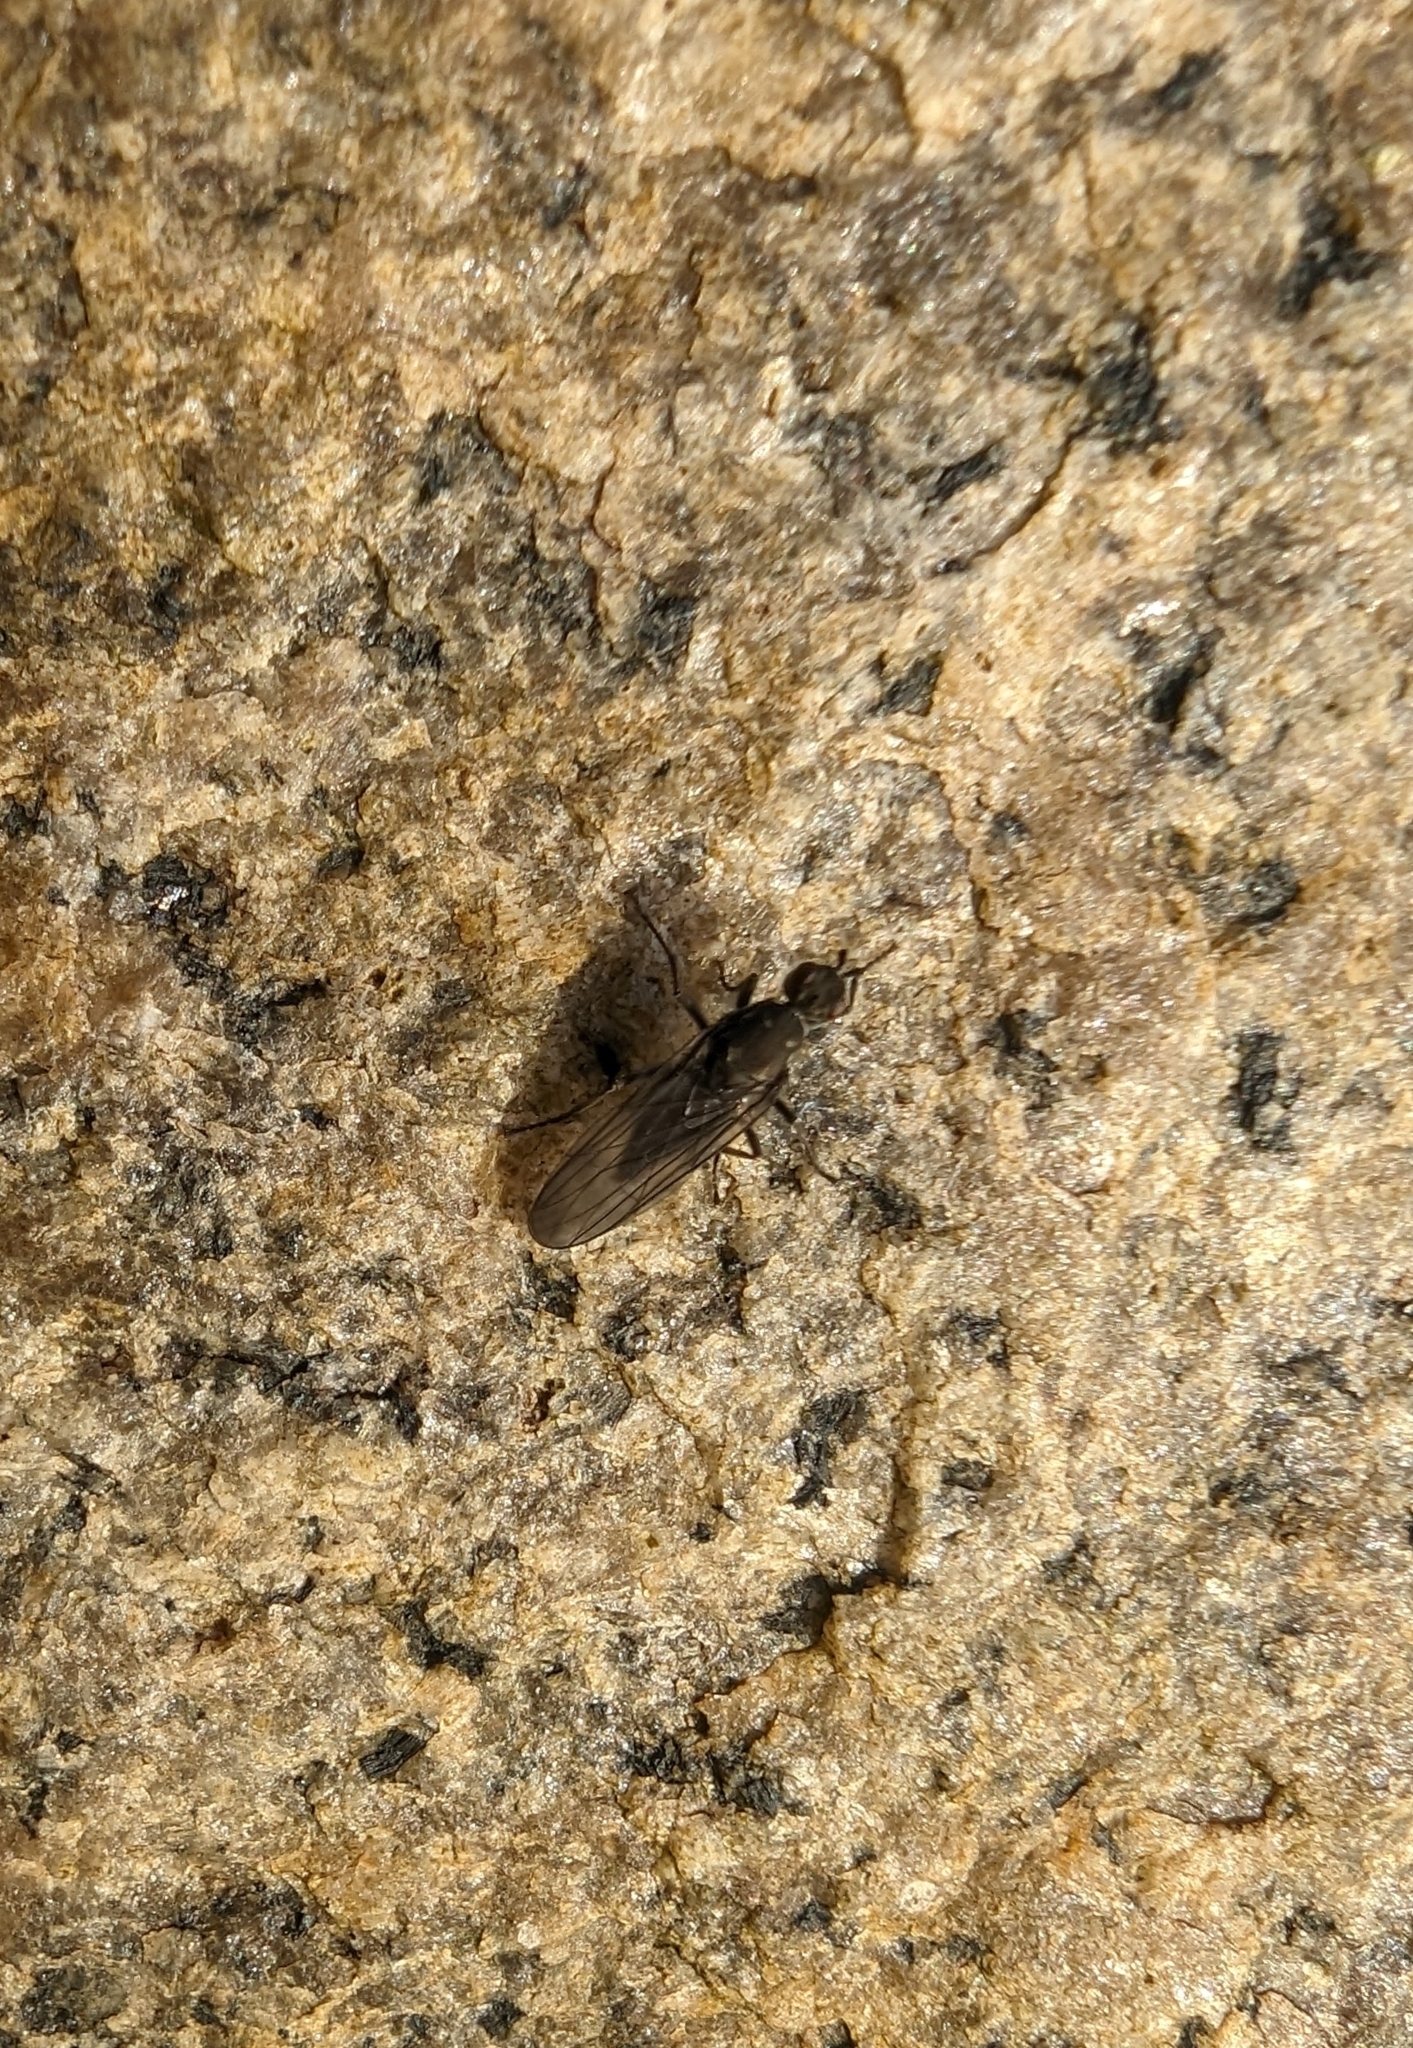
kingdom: Animalia
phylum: Arthropoda
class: Insecta
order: Diptera
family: Dryomyzidae
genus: Oedoparena
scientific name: Oedoparena glauca
